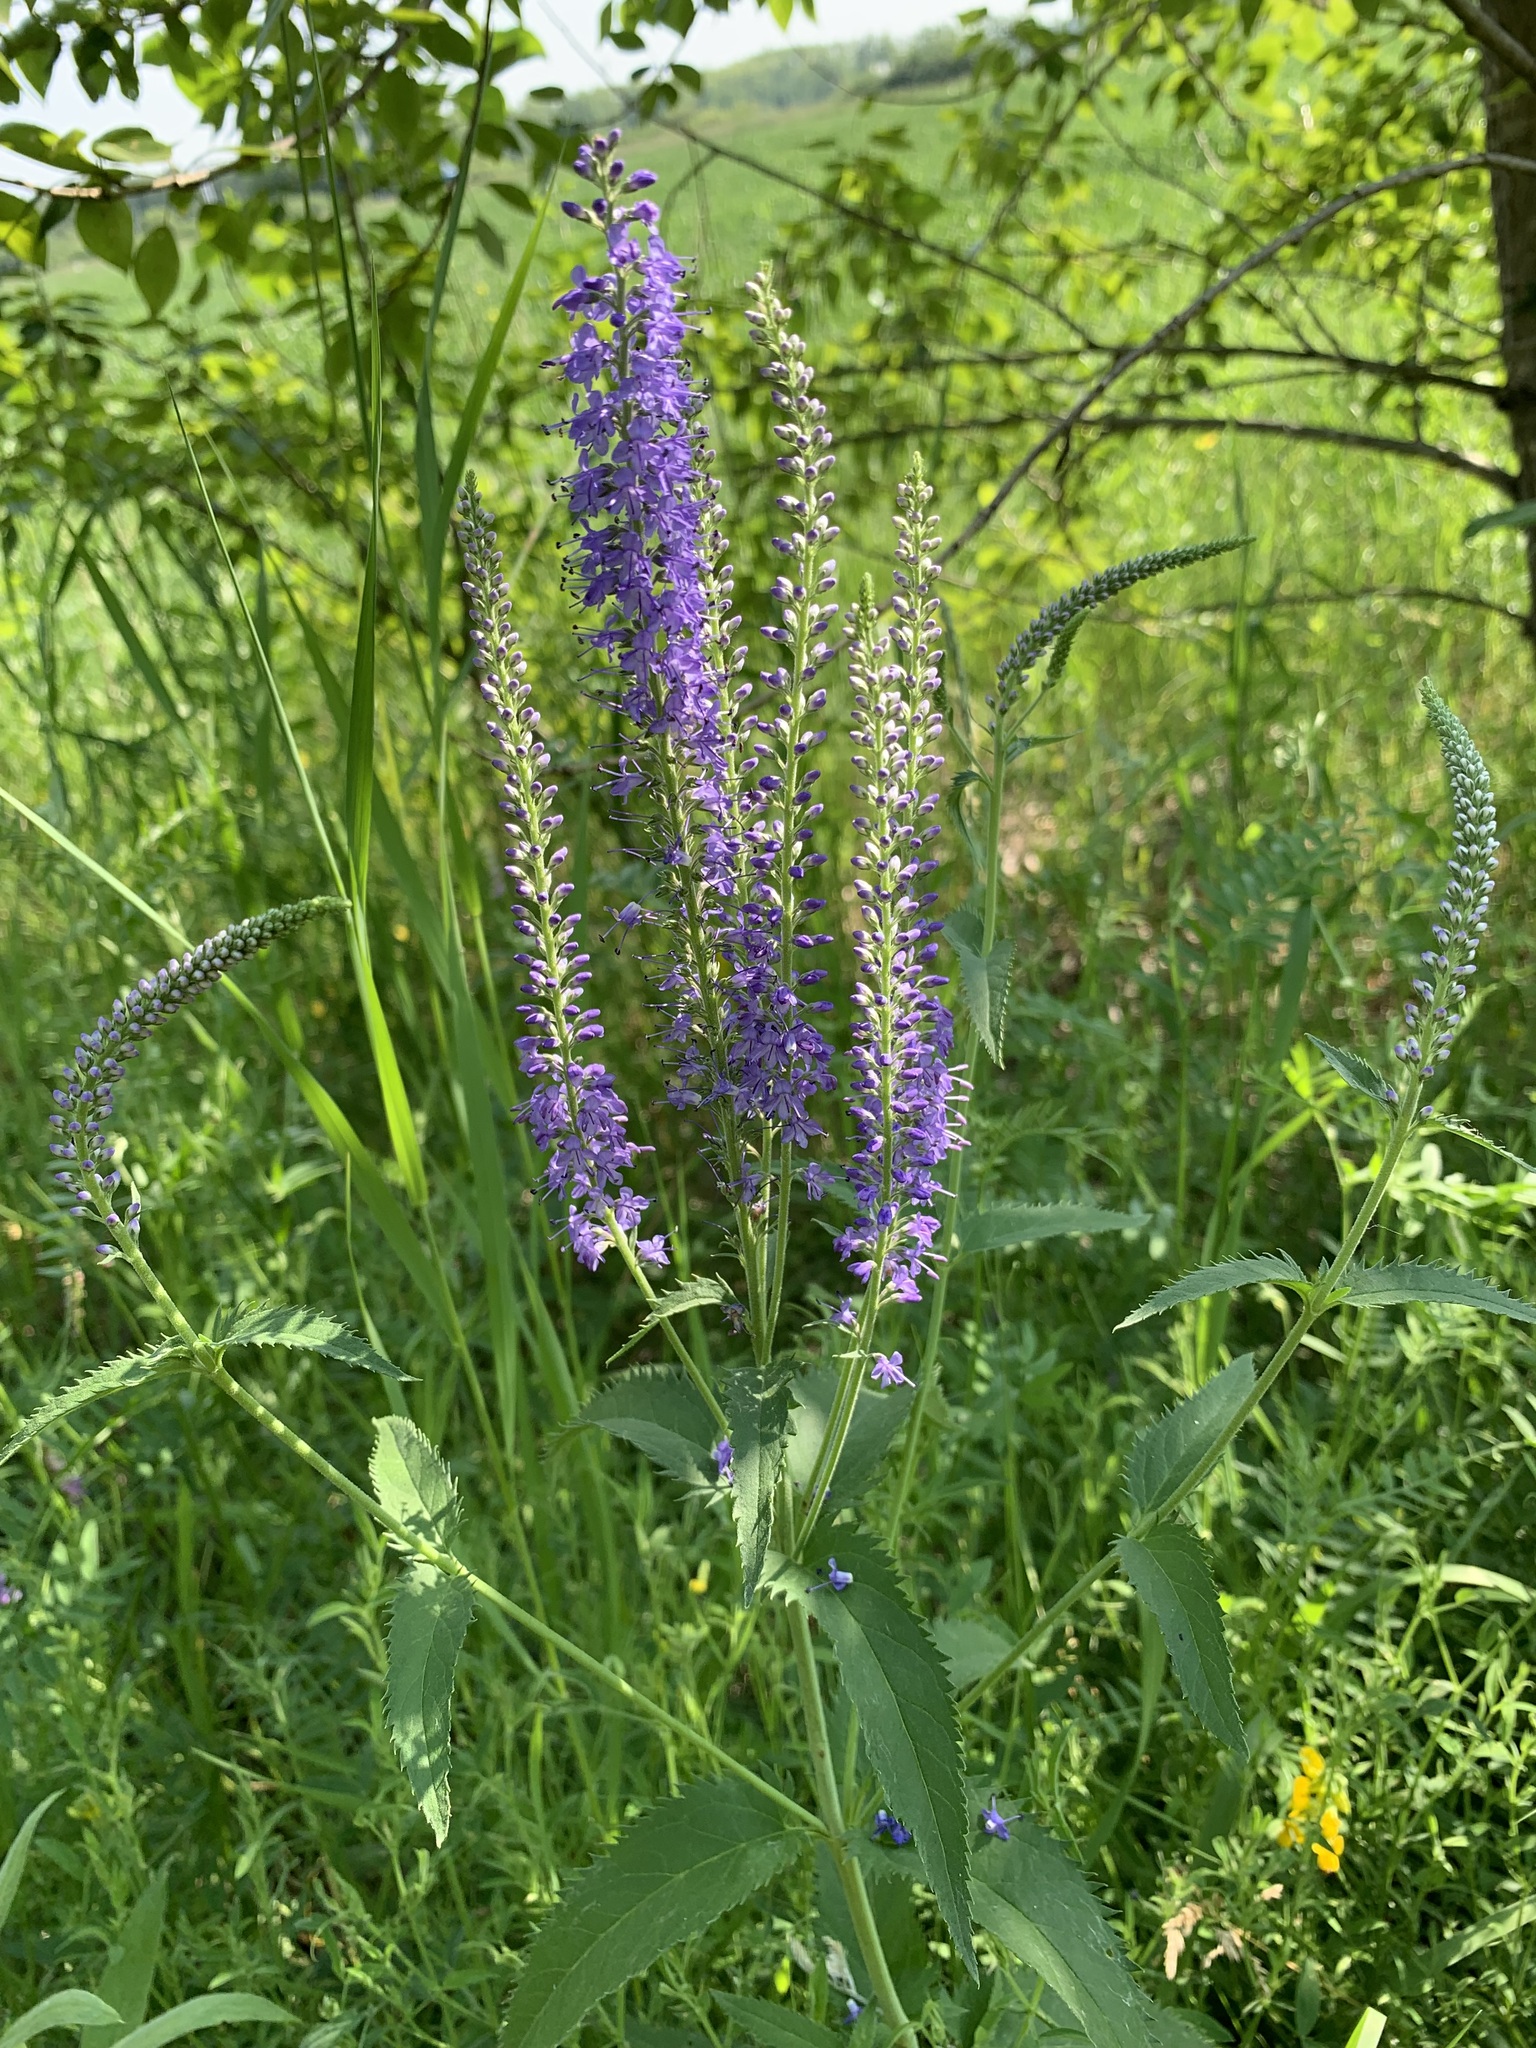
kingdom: Plantae
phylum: Tracheophyta
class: Magnoliopsida
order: Lamiales
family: Plantaginaceae
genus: Veronica
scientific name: Veronica longifolia
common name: Garden speedwell
